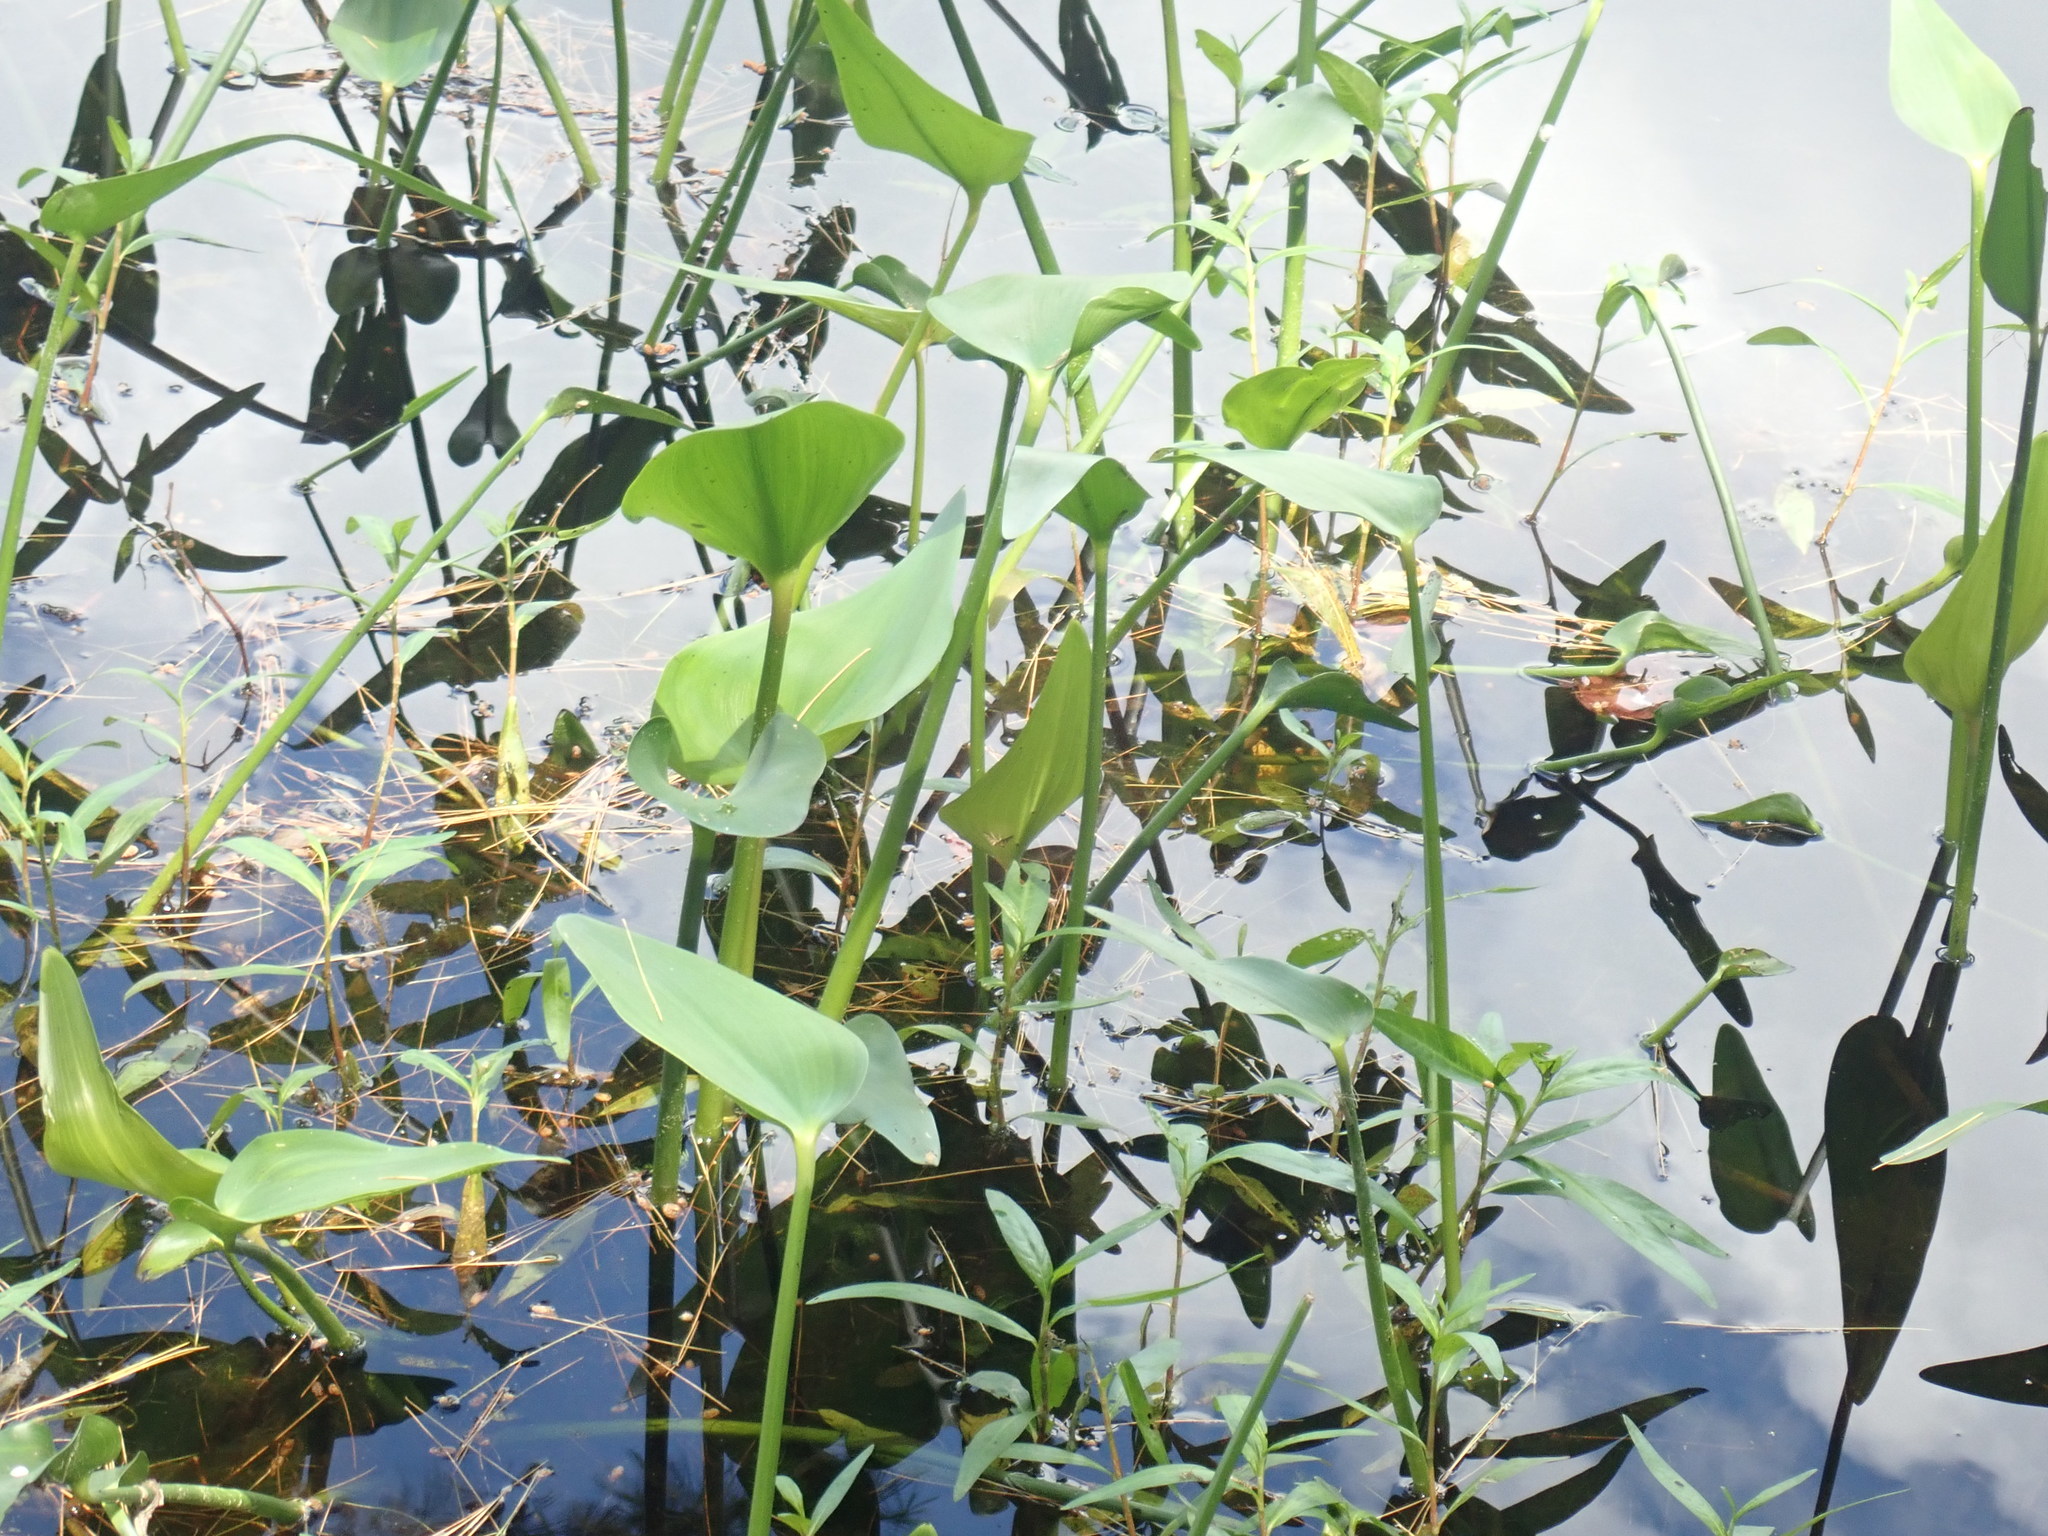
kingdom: Plantae
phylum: Tracheophyta
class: Liliopsida
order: Commelinales
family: Pontederiaceae
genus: Pontederia
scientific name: Pontederia cordata
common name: Pickerelweed
